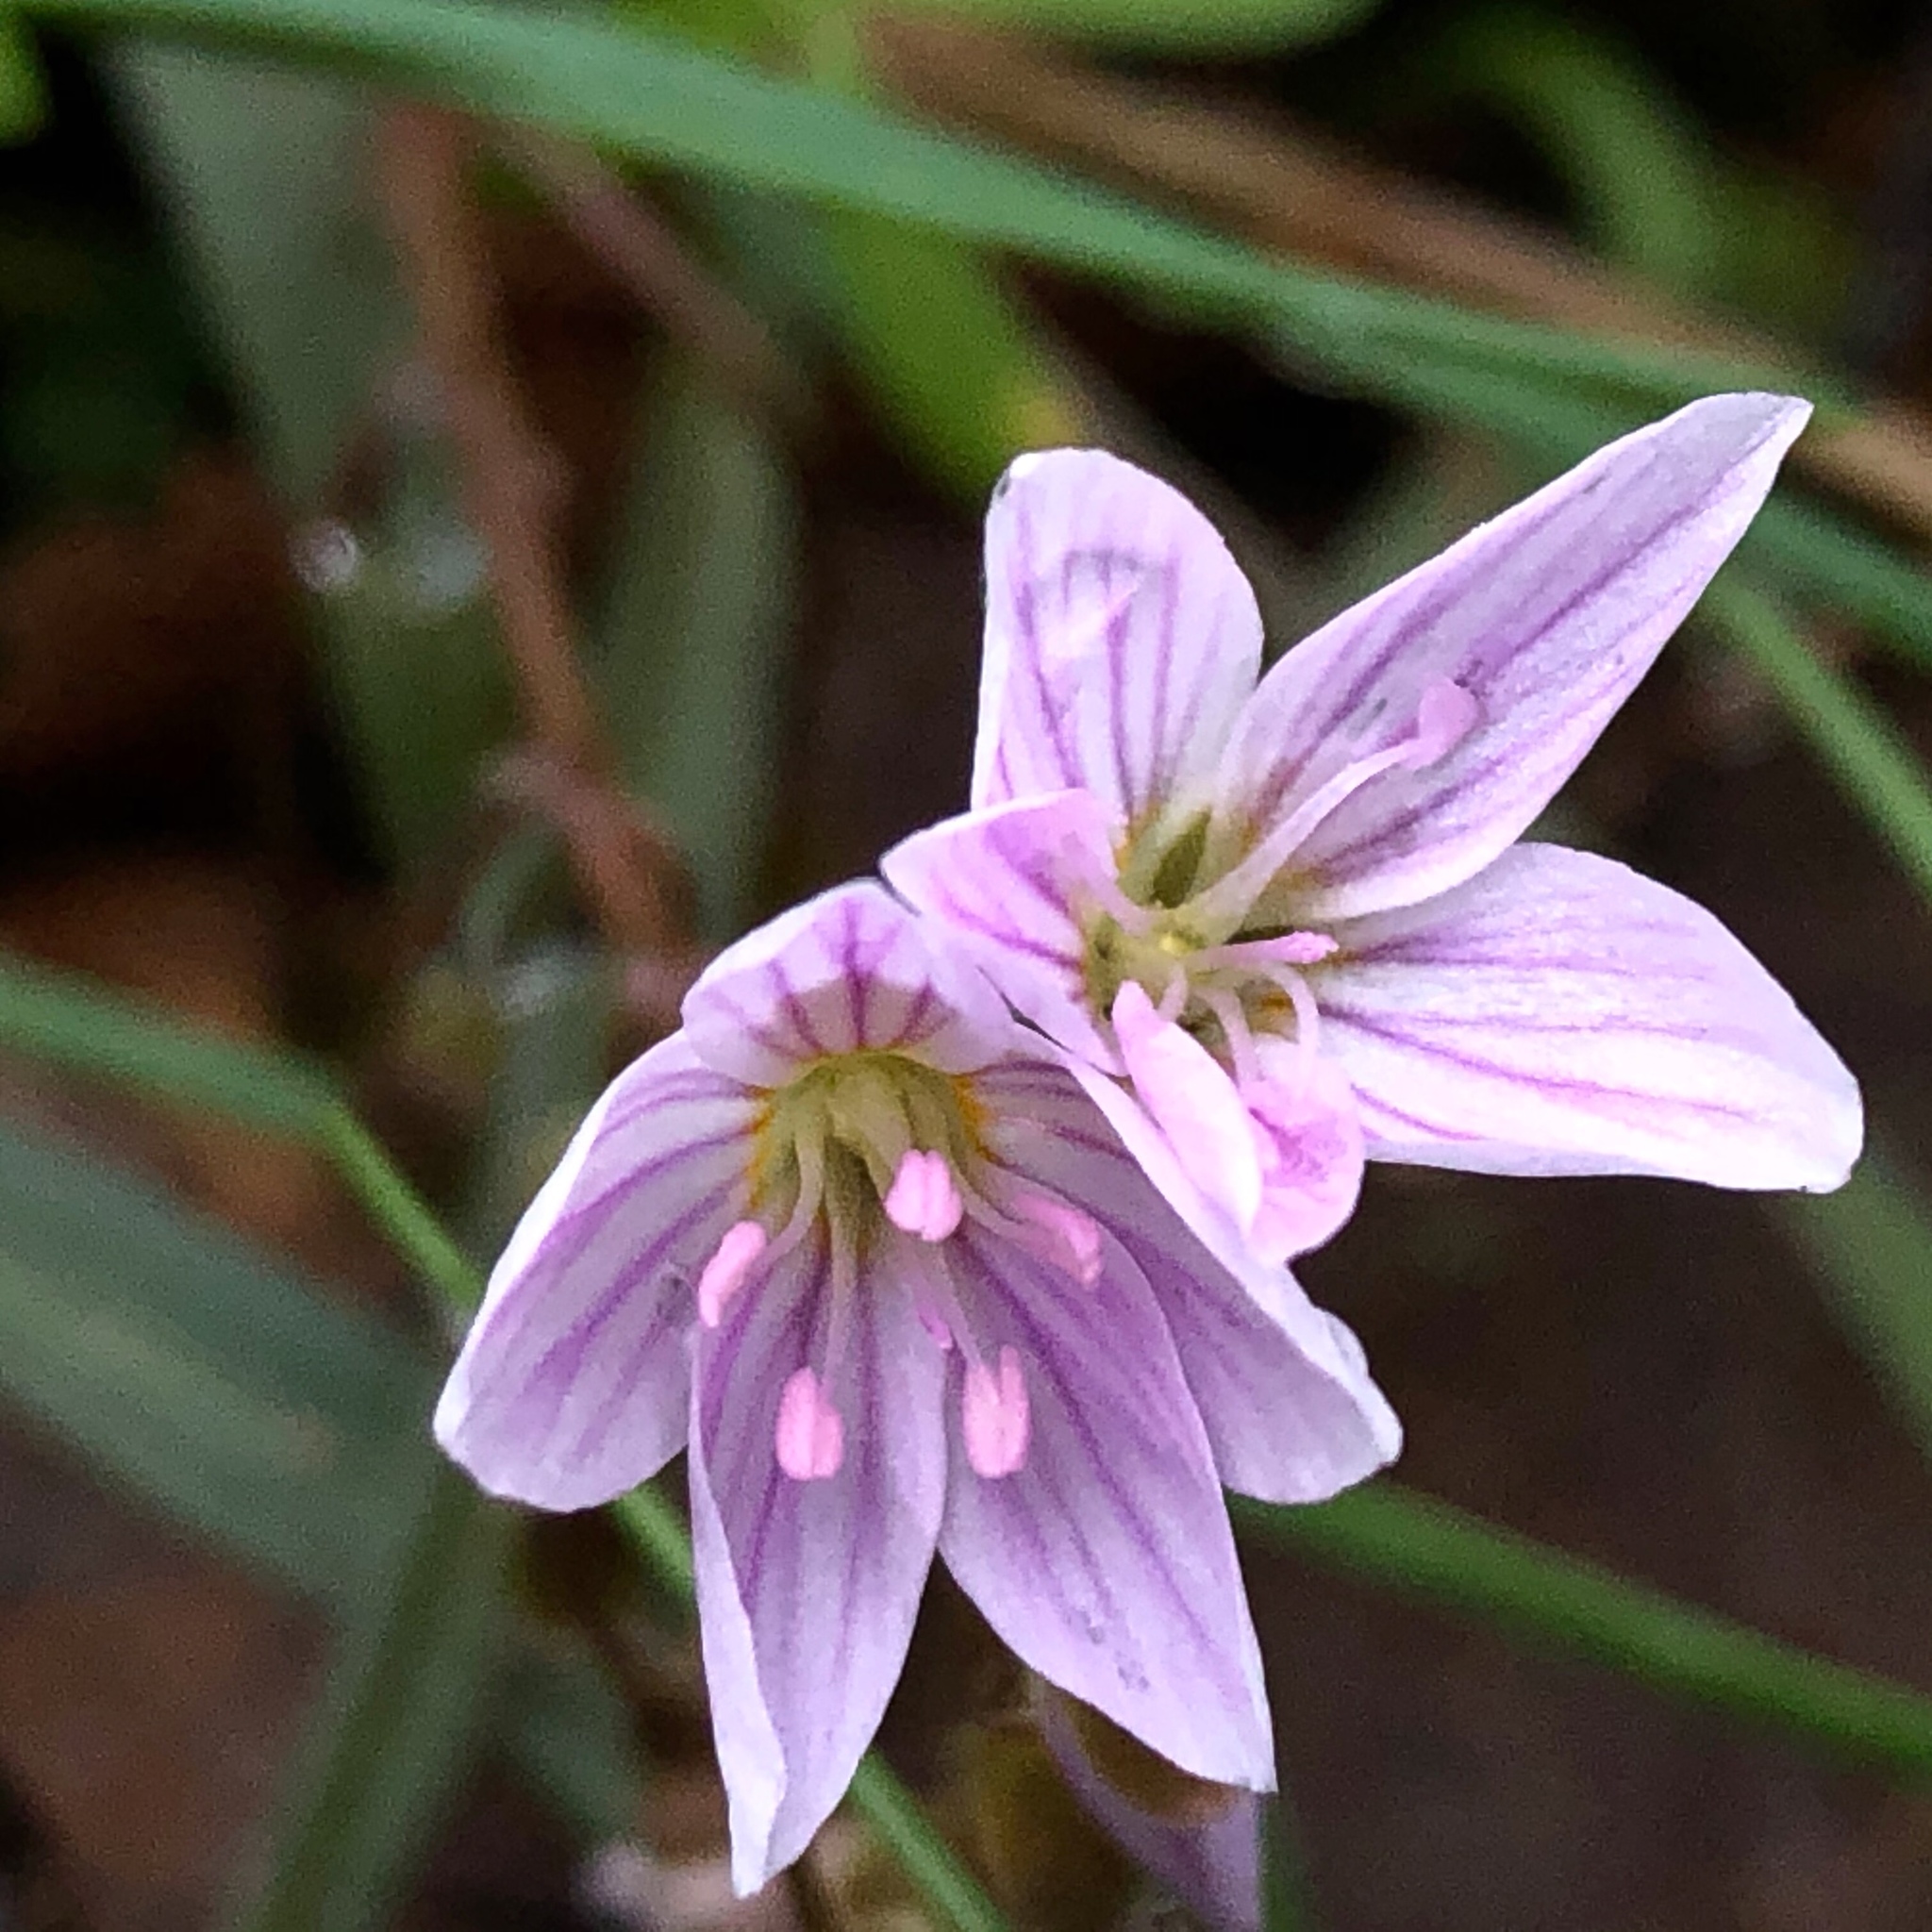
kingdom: Plantae
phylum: Tracheophyta
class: Magnoliopsida
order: Caryophyllales
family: Montiaceae
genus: Claytonia
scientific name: Claytonia virginica
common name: Virginia springbeauty
